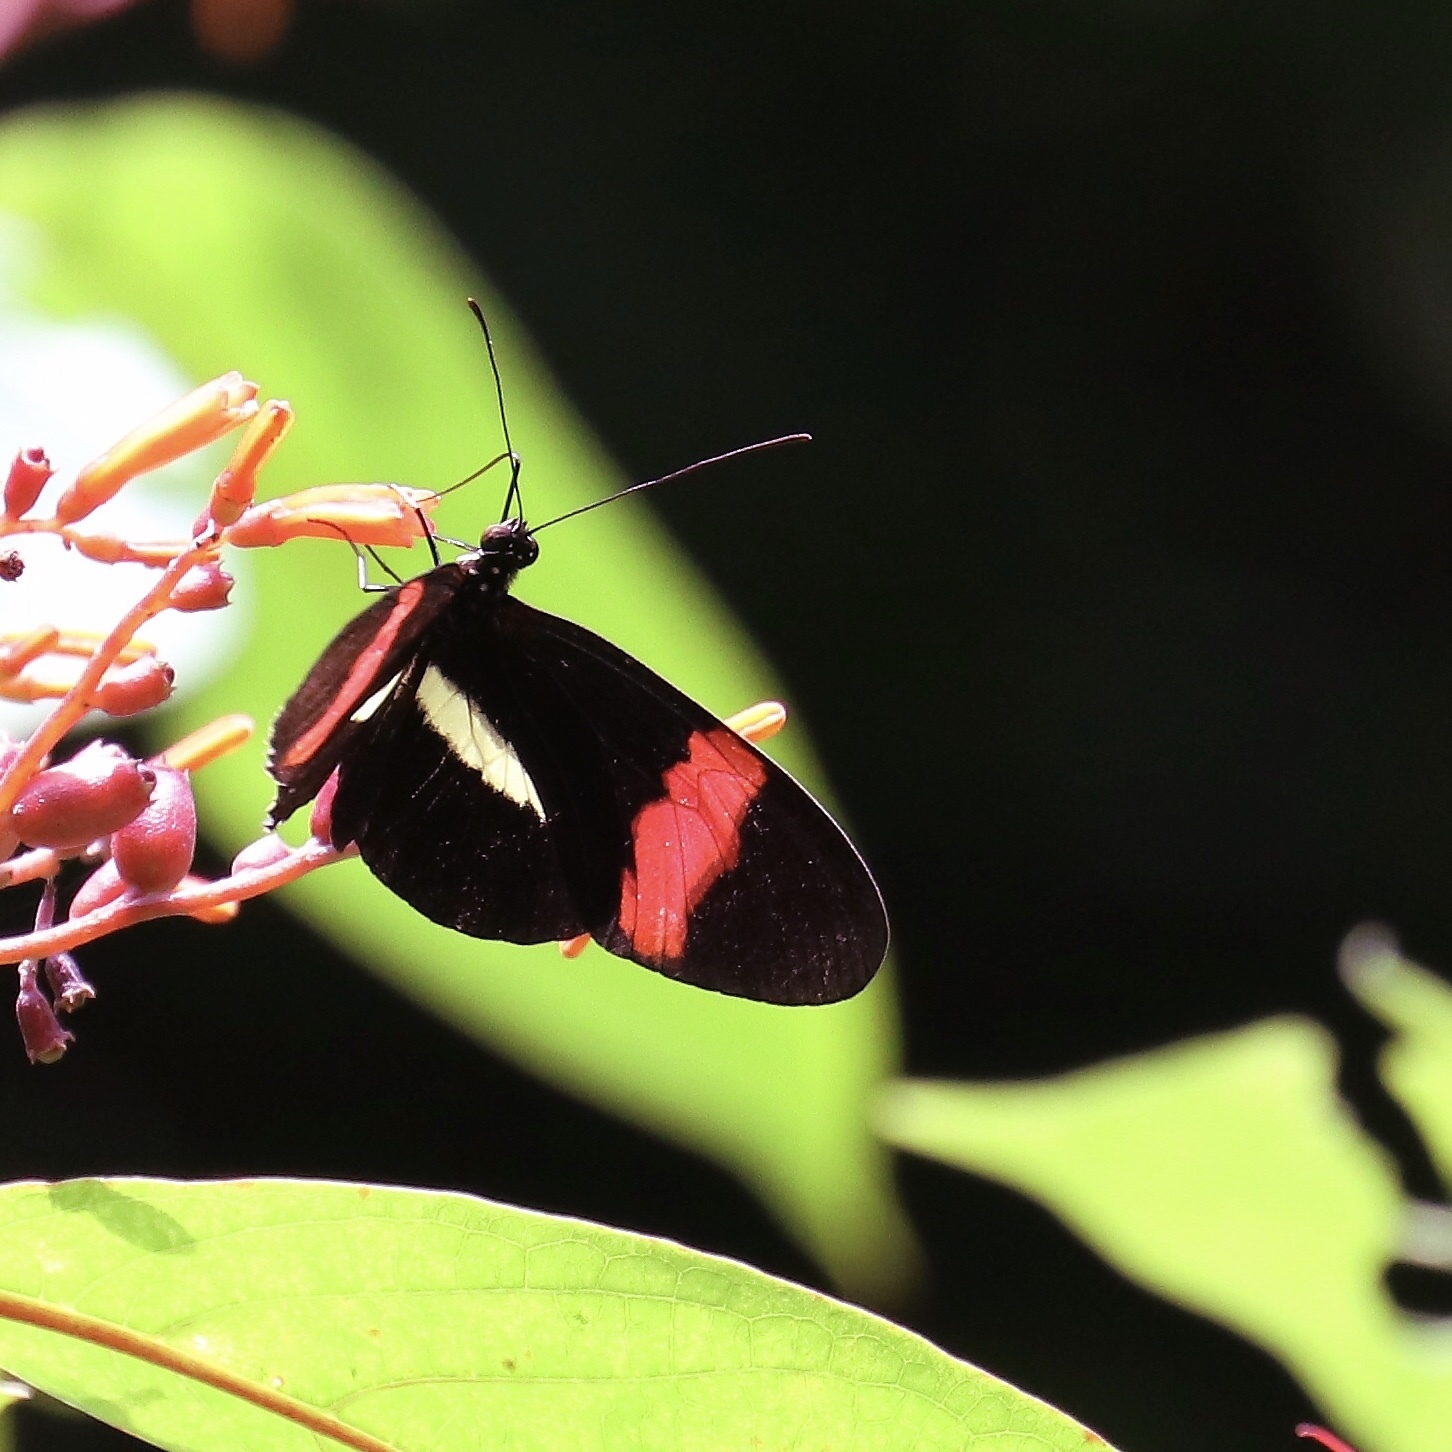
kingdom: Animalia
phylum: Arthropoda
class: Insecta
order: Lepidoptera
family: Nymphalidae
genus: Heliconius
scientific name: Heliconius melpomene
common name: Postman
